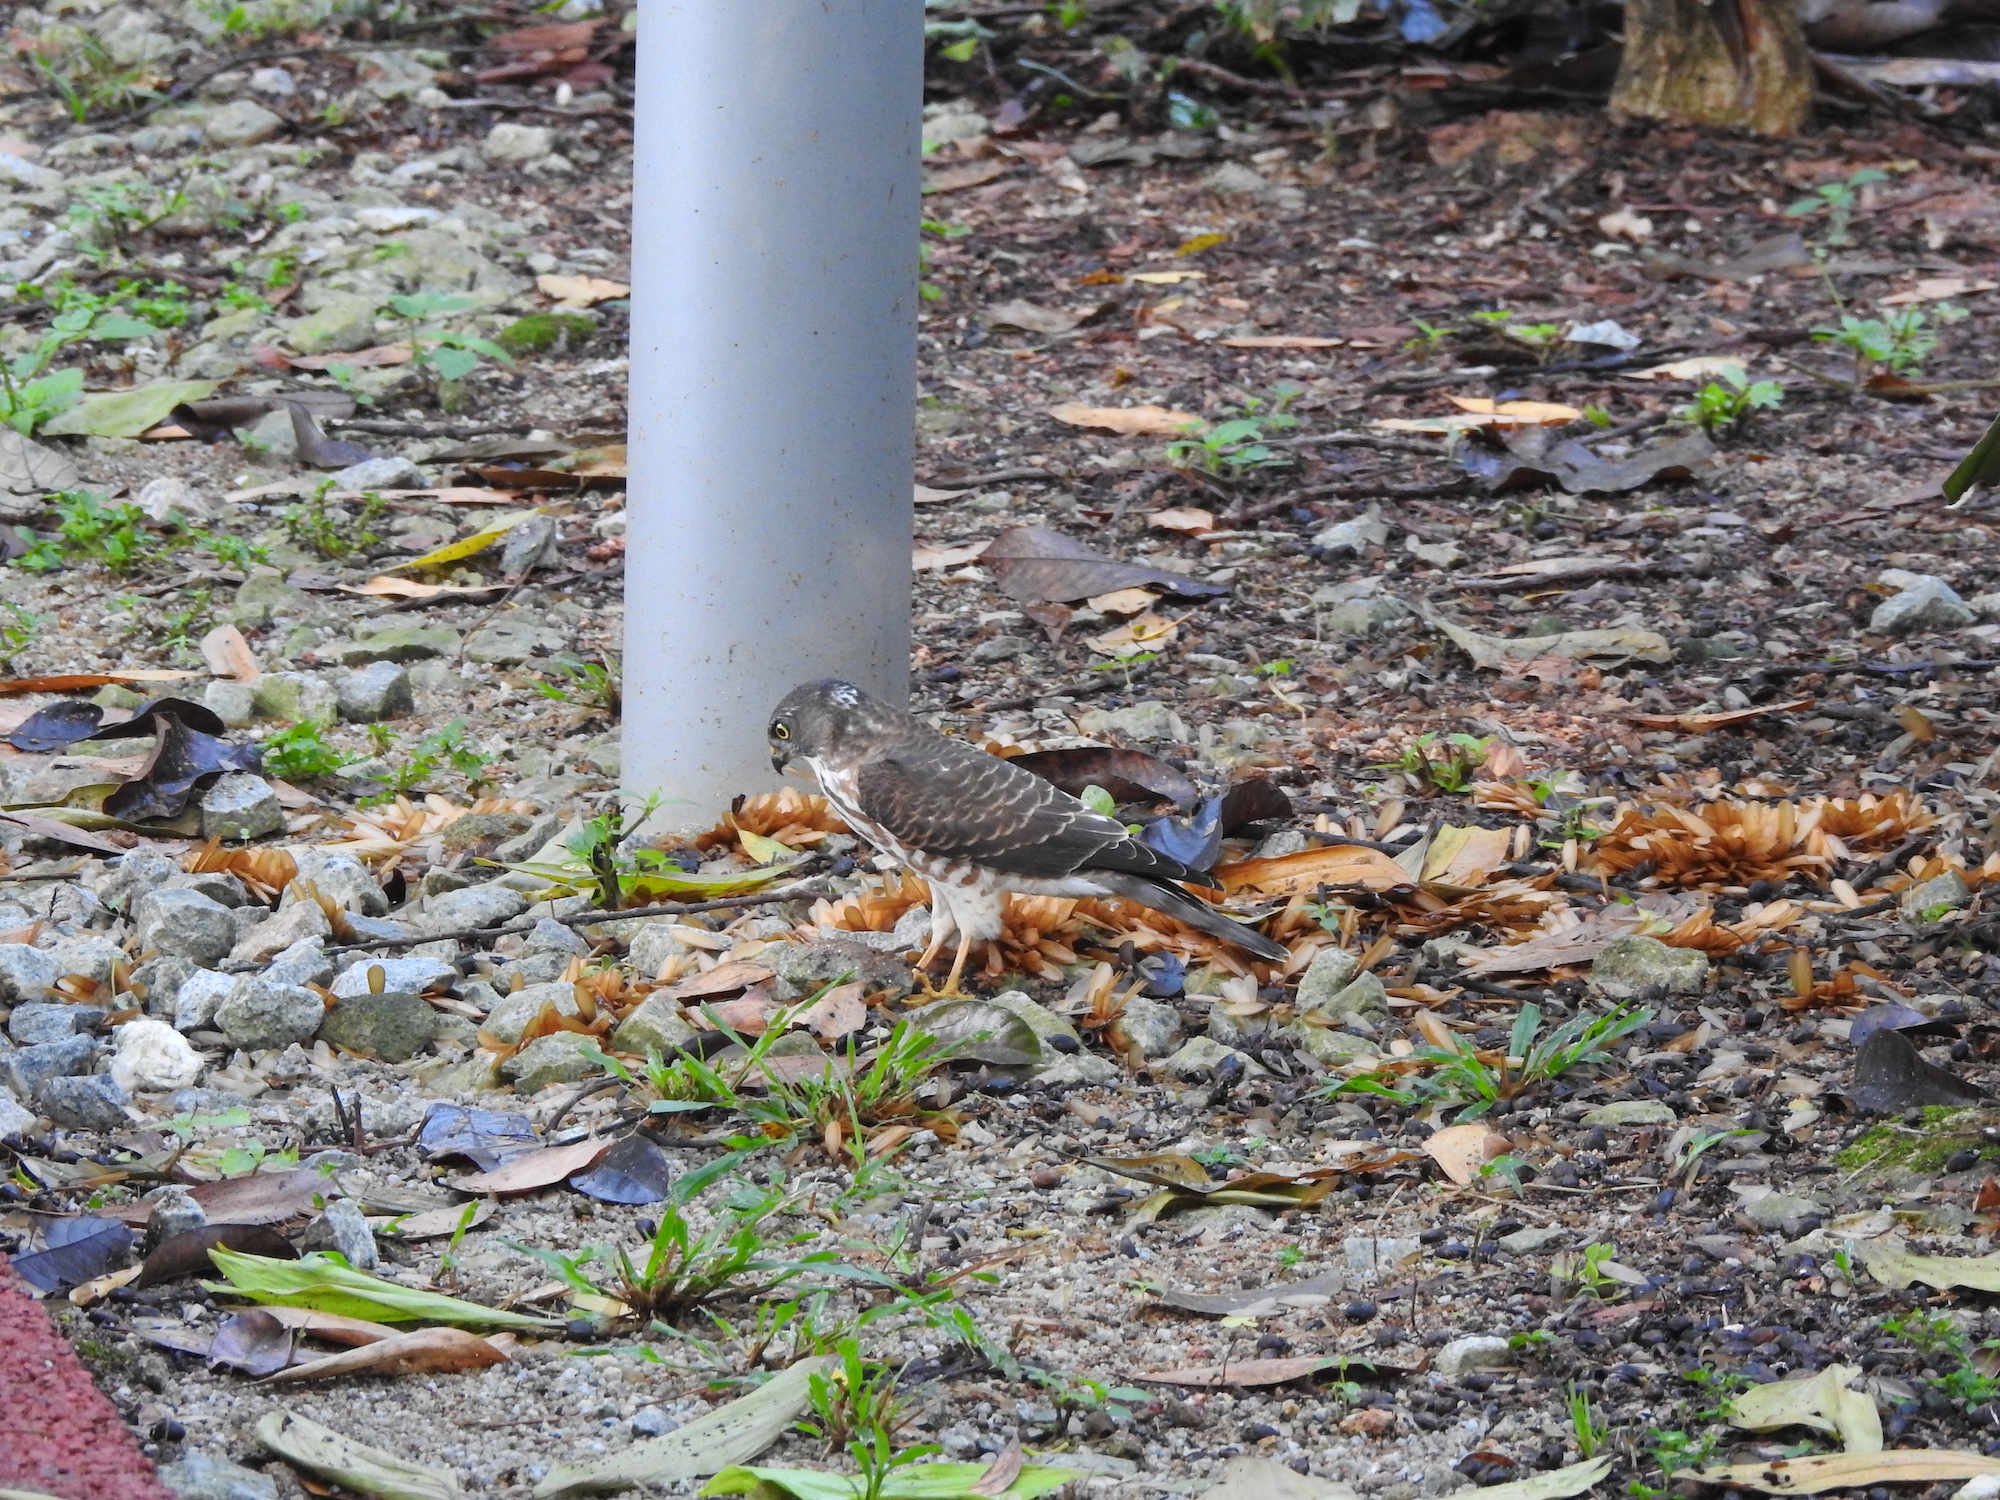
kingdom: Animalia
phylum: Chordata
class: Aves
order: Accipitriformes
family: Accipitridae
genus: Accipiter
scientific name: Accipiter soloensis
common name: Chinese sparrowhawk
